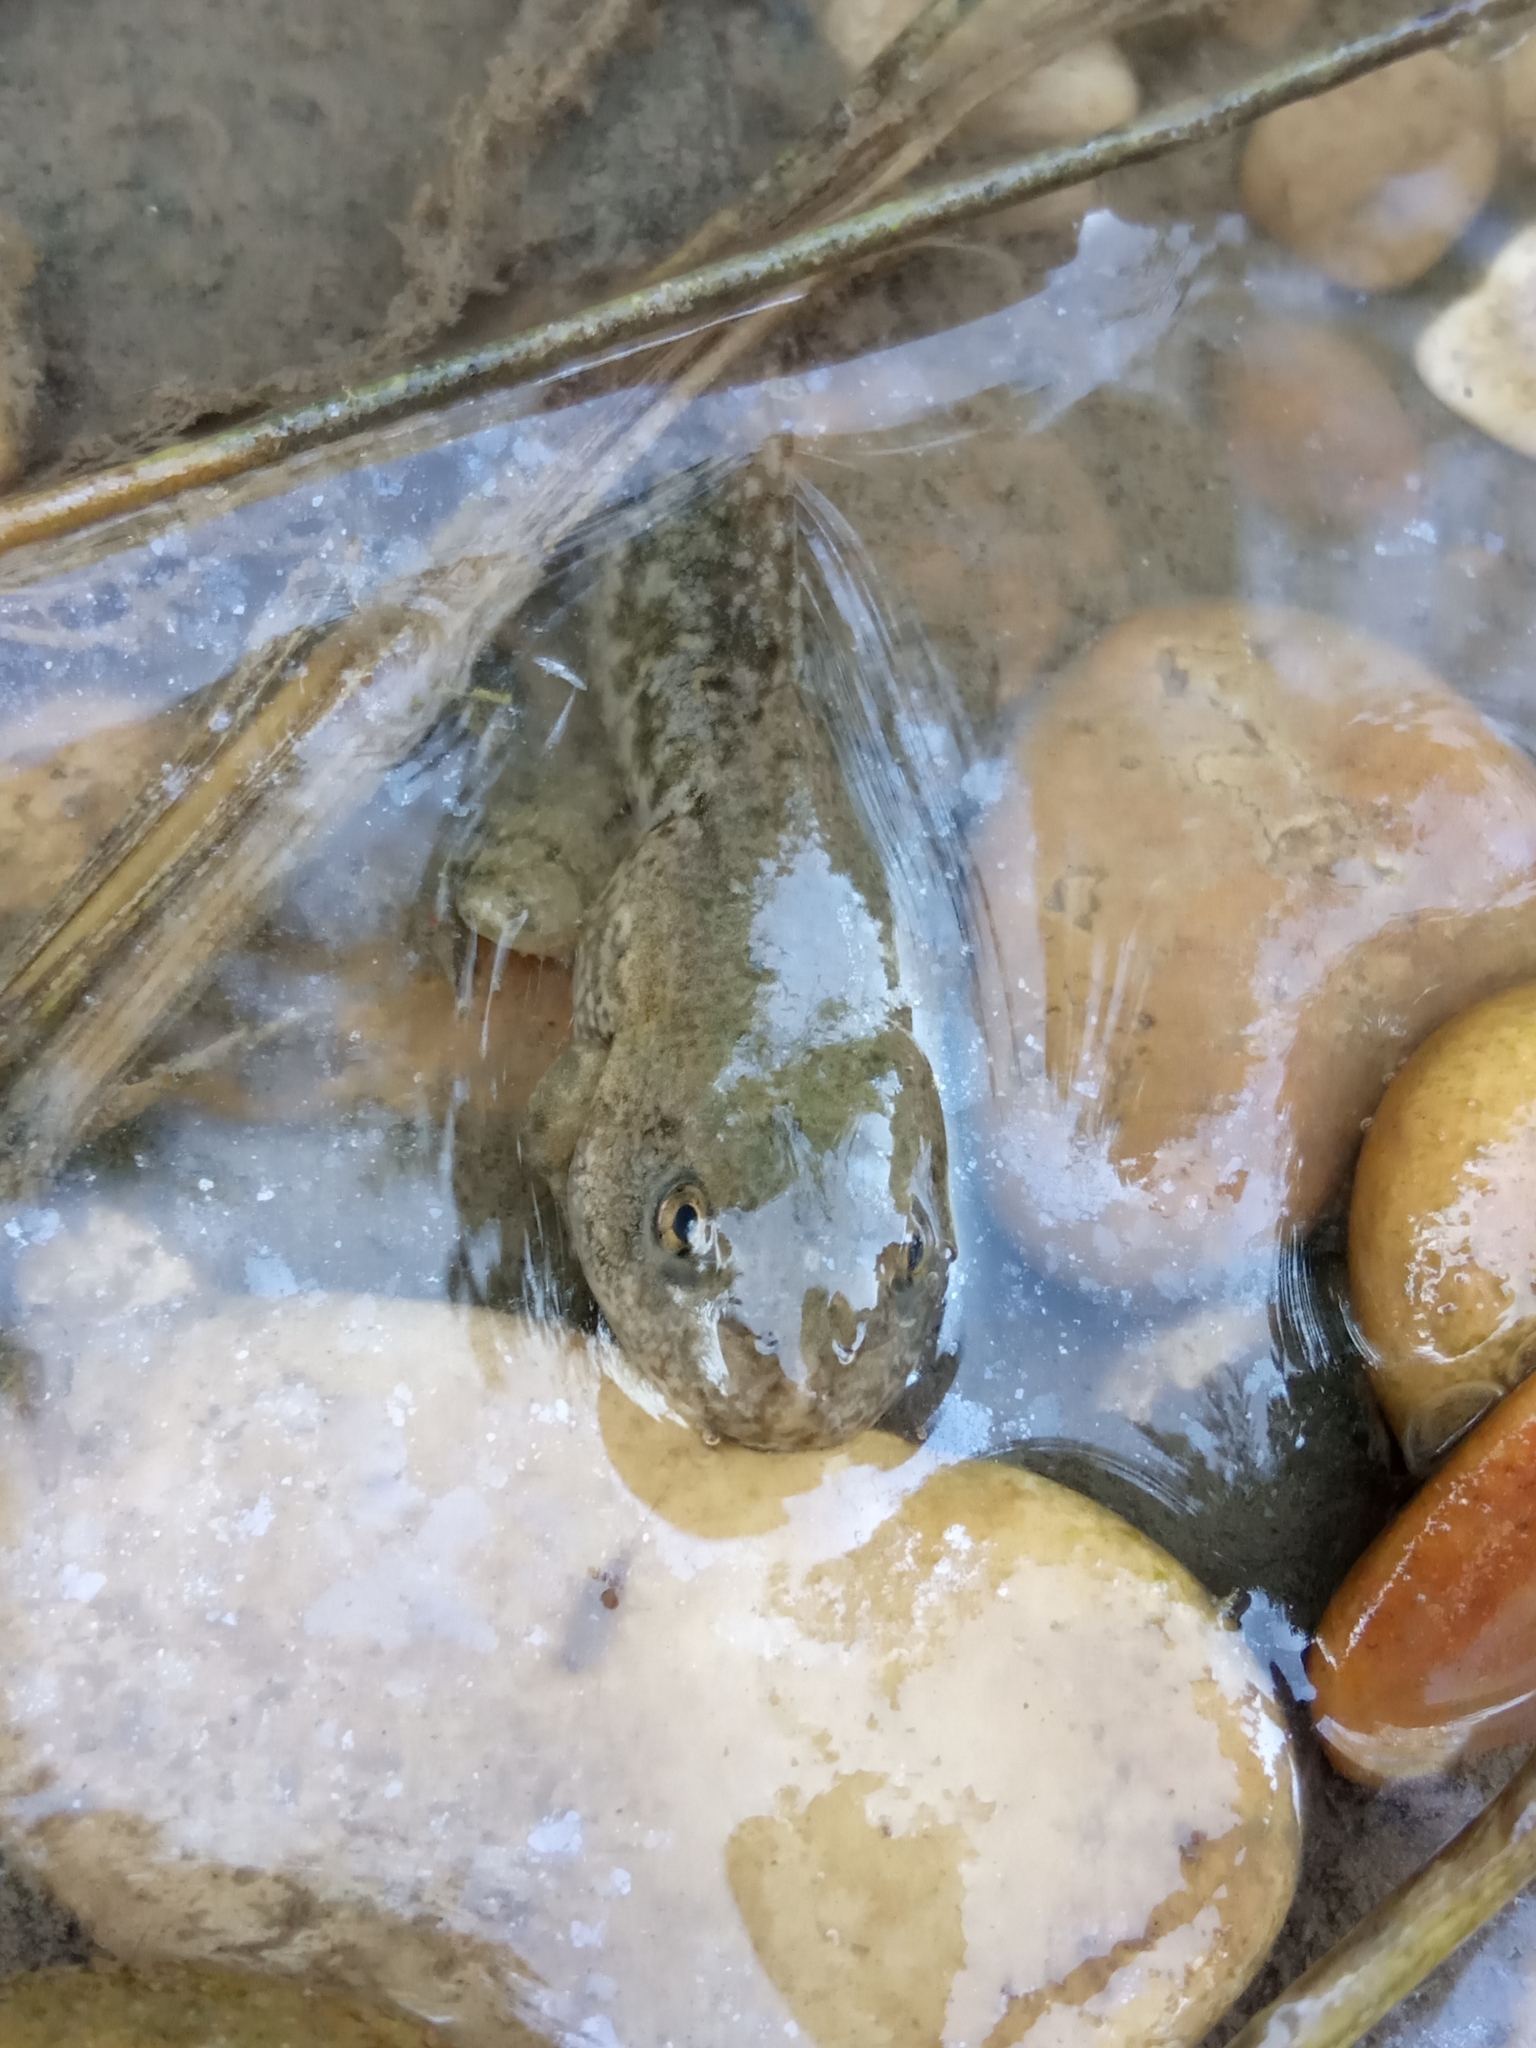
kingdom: Animalia
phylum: Chordata
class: Amphibia
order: Anura
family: Ranidae
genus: Pelophylax
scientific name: Pelophylax ridibundus
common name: Marsh frog
